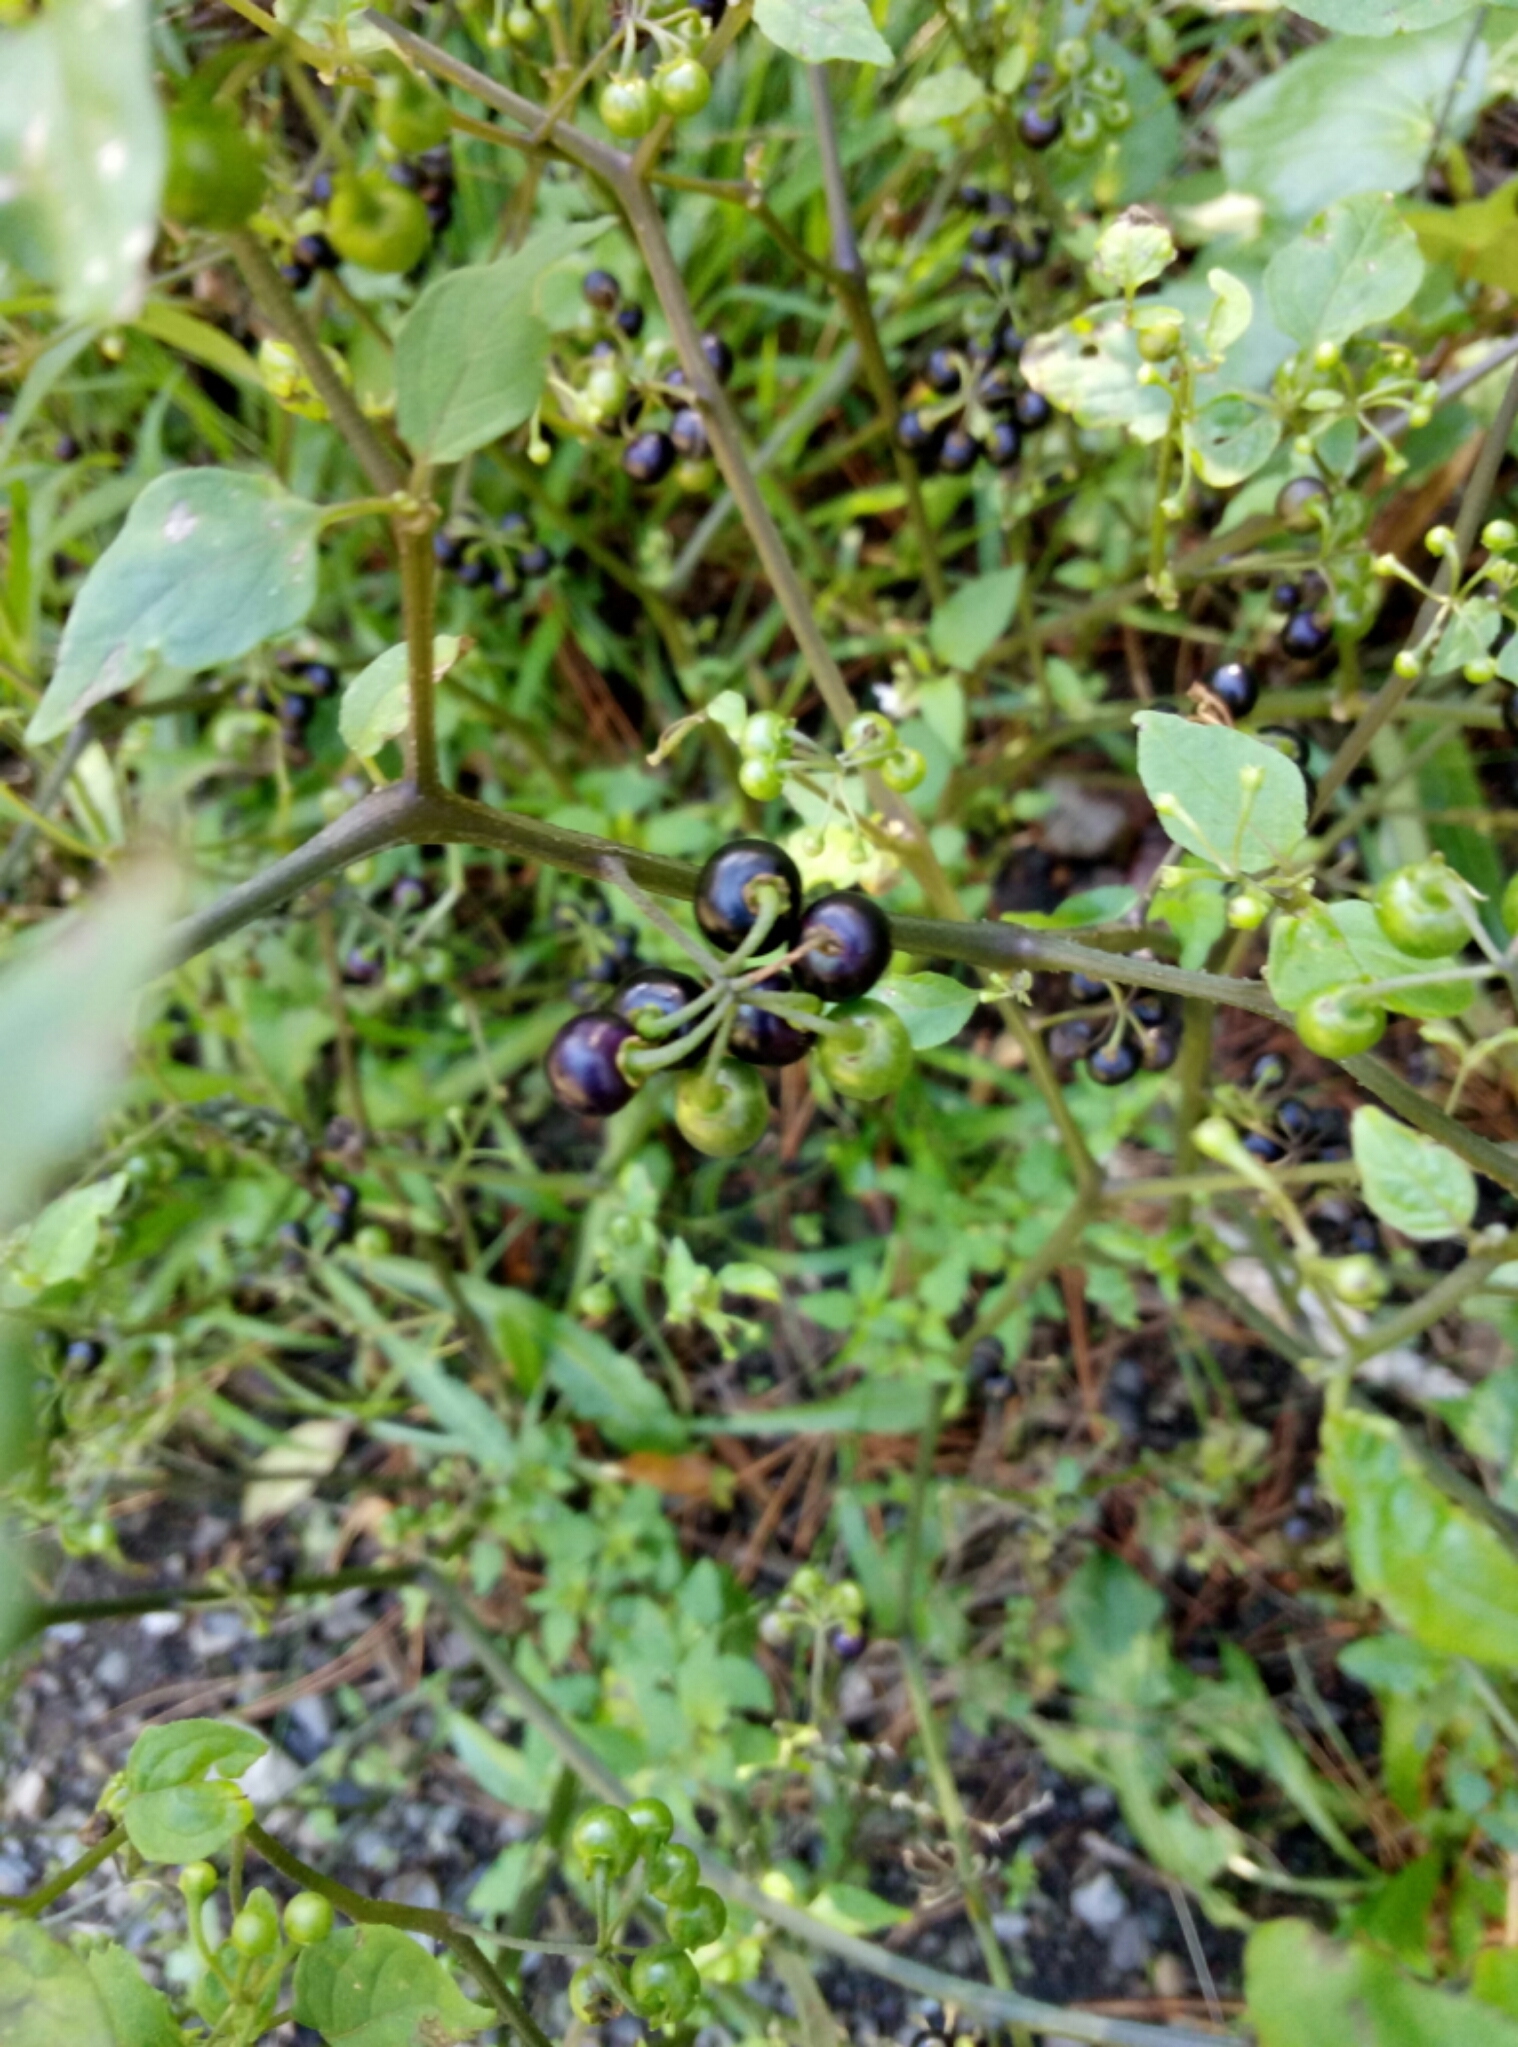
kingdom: Plantae
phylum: Tracheophyta
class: Magnoliopsida
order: Solanales
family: Solanaceae
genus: Solanum
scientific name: Solanum nigrum
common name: Black nightshade
